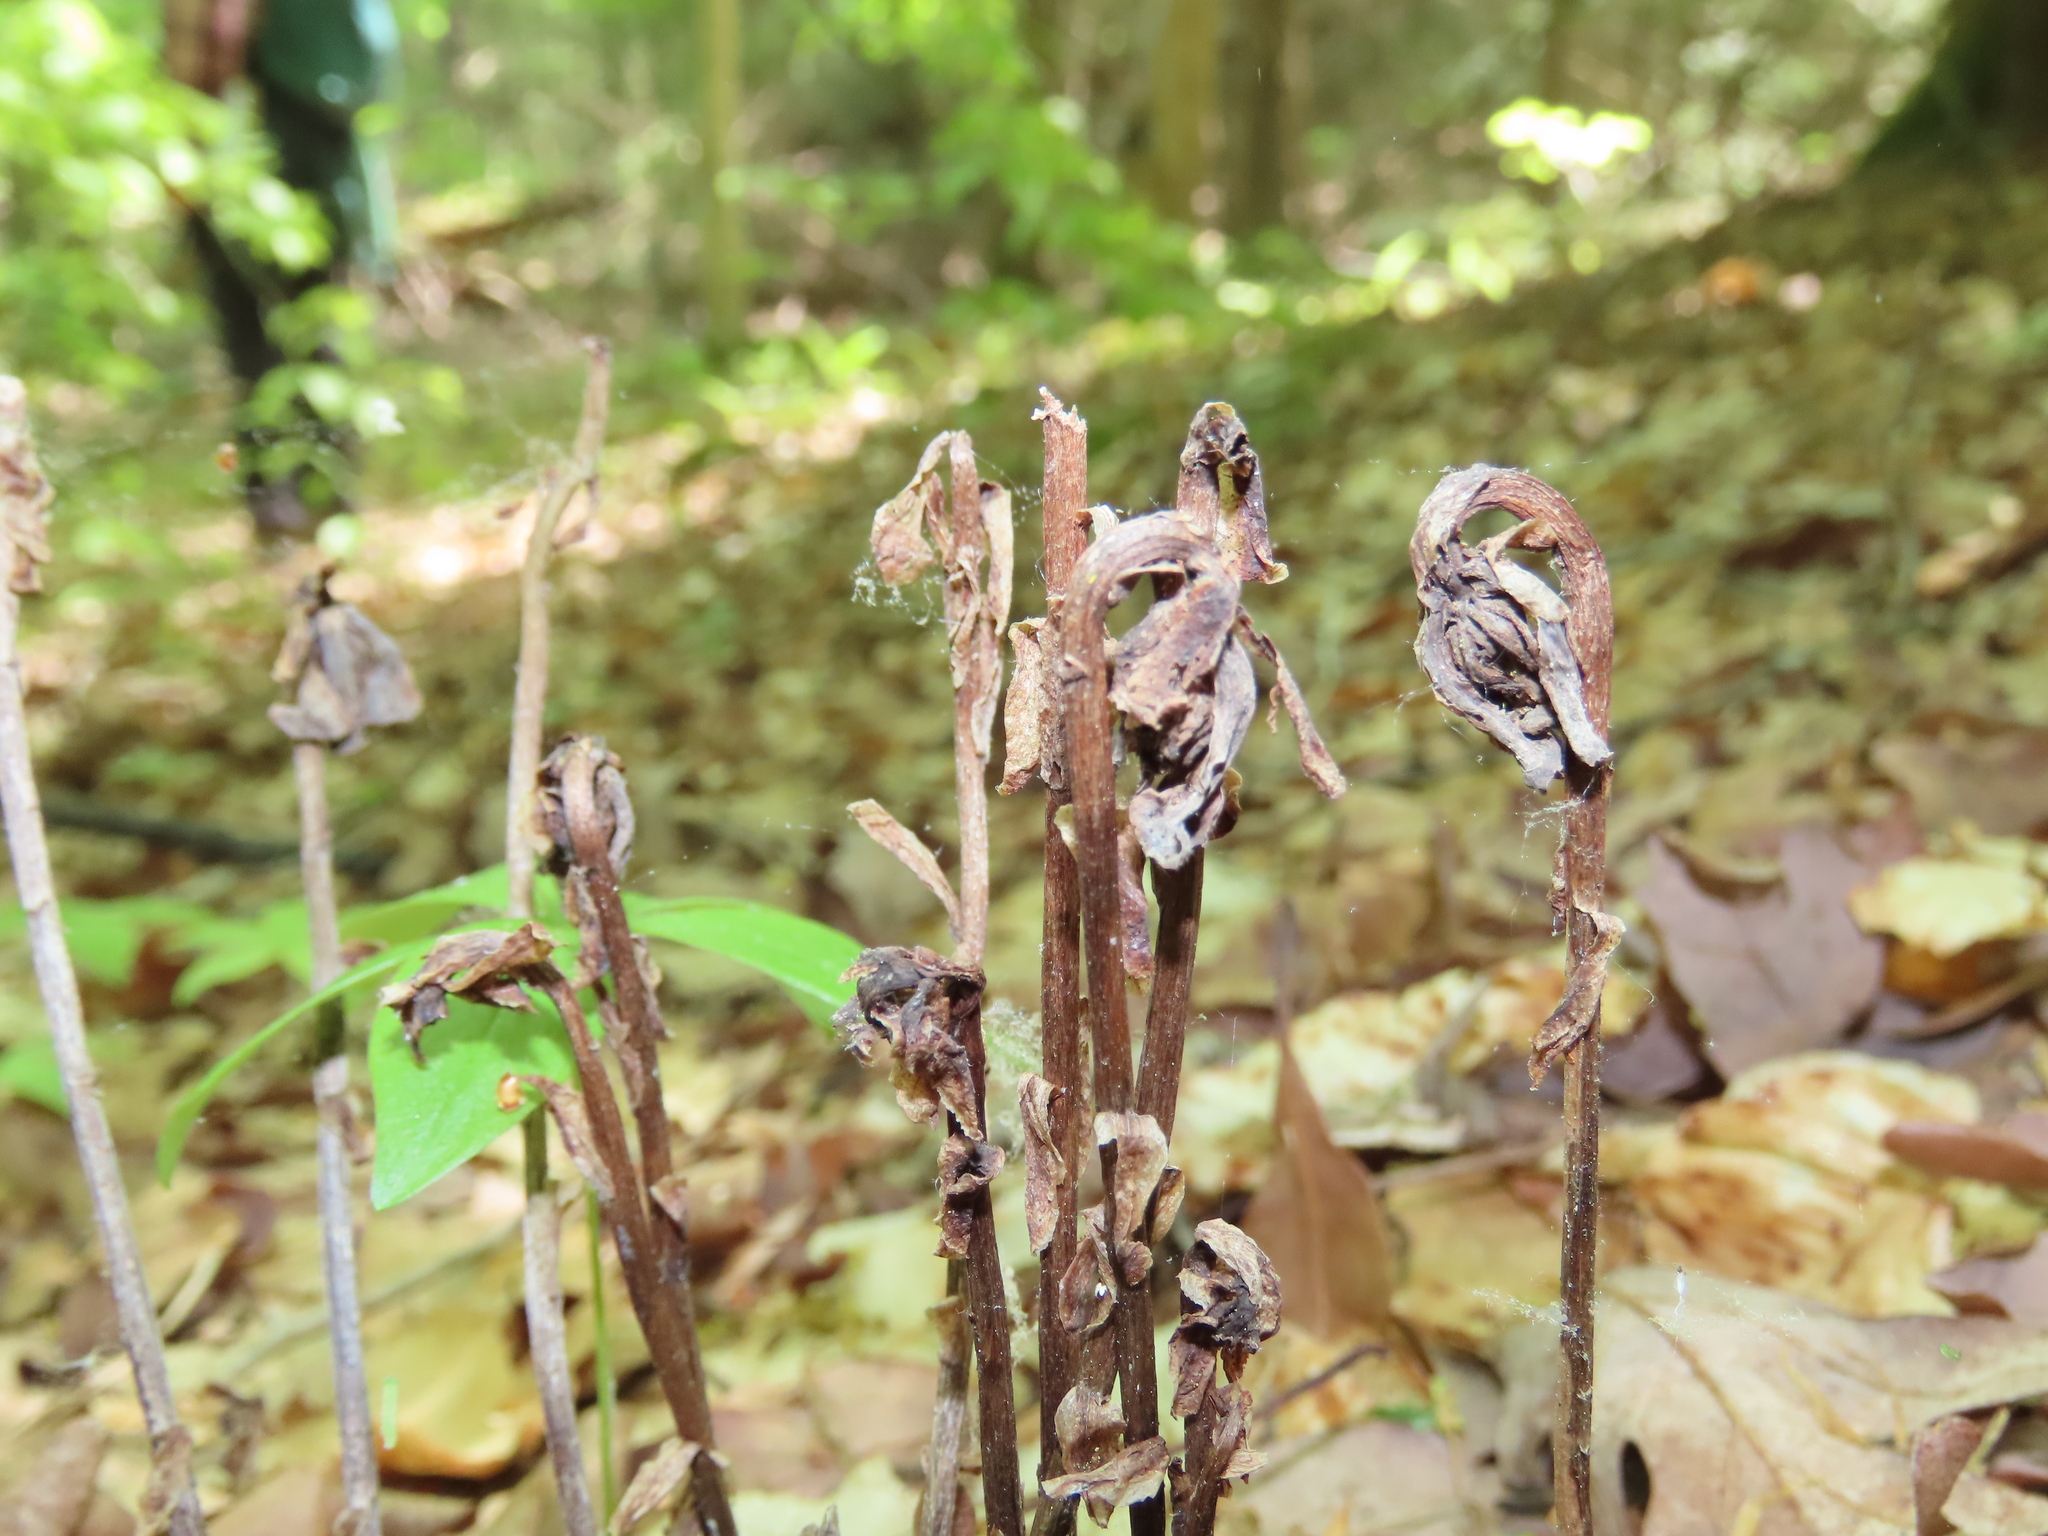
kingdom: Plantae
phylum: Tracheophyta
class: Magnoliopsida
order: Ericales
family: Ericaceae
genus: Monotropa
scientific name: Monotropa uniflora
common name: Convulsion root
